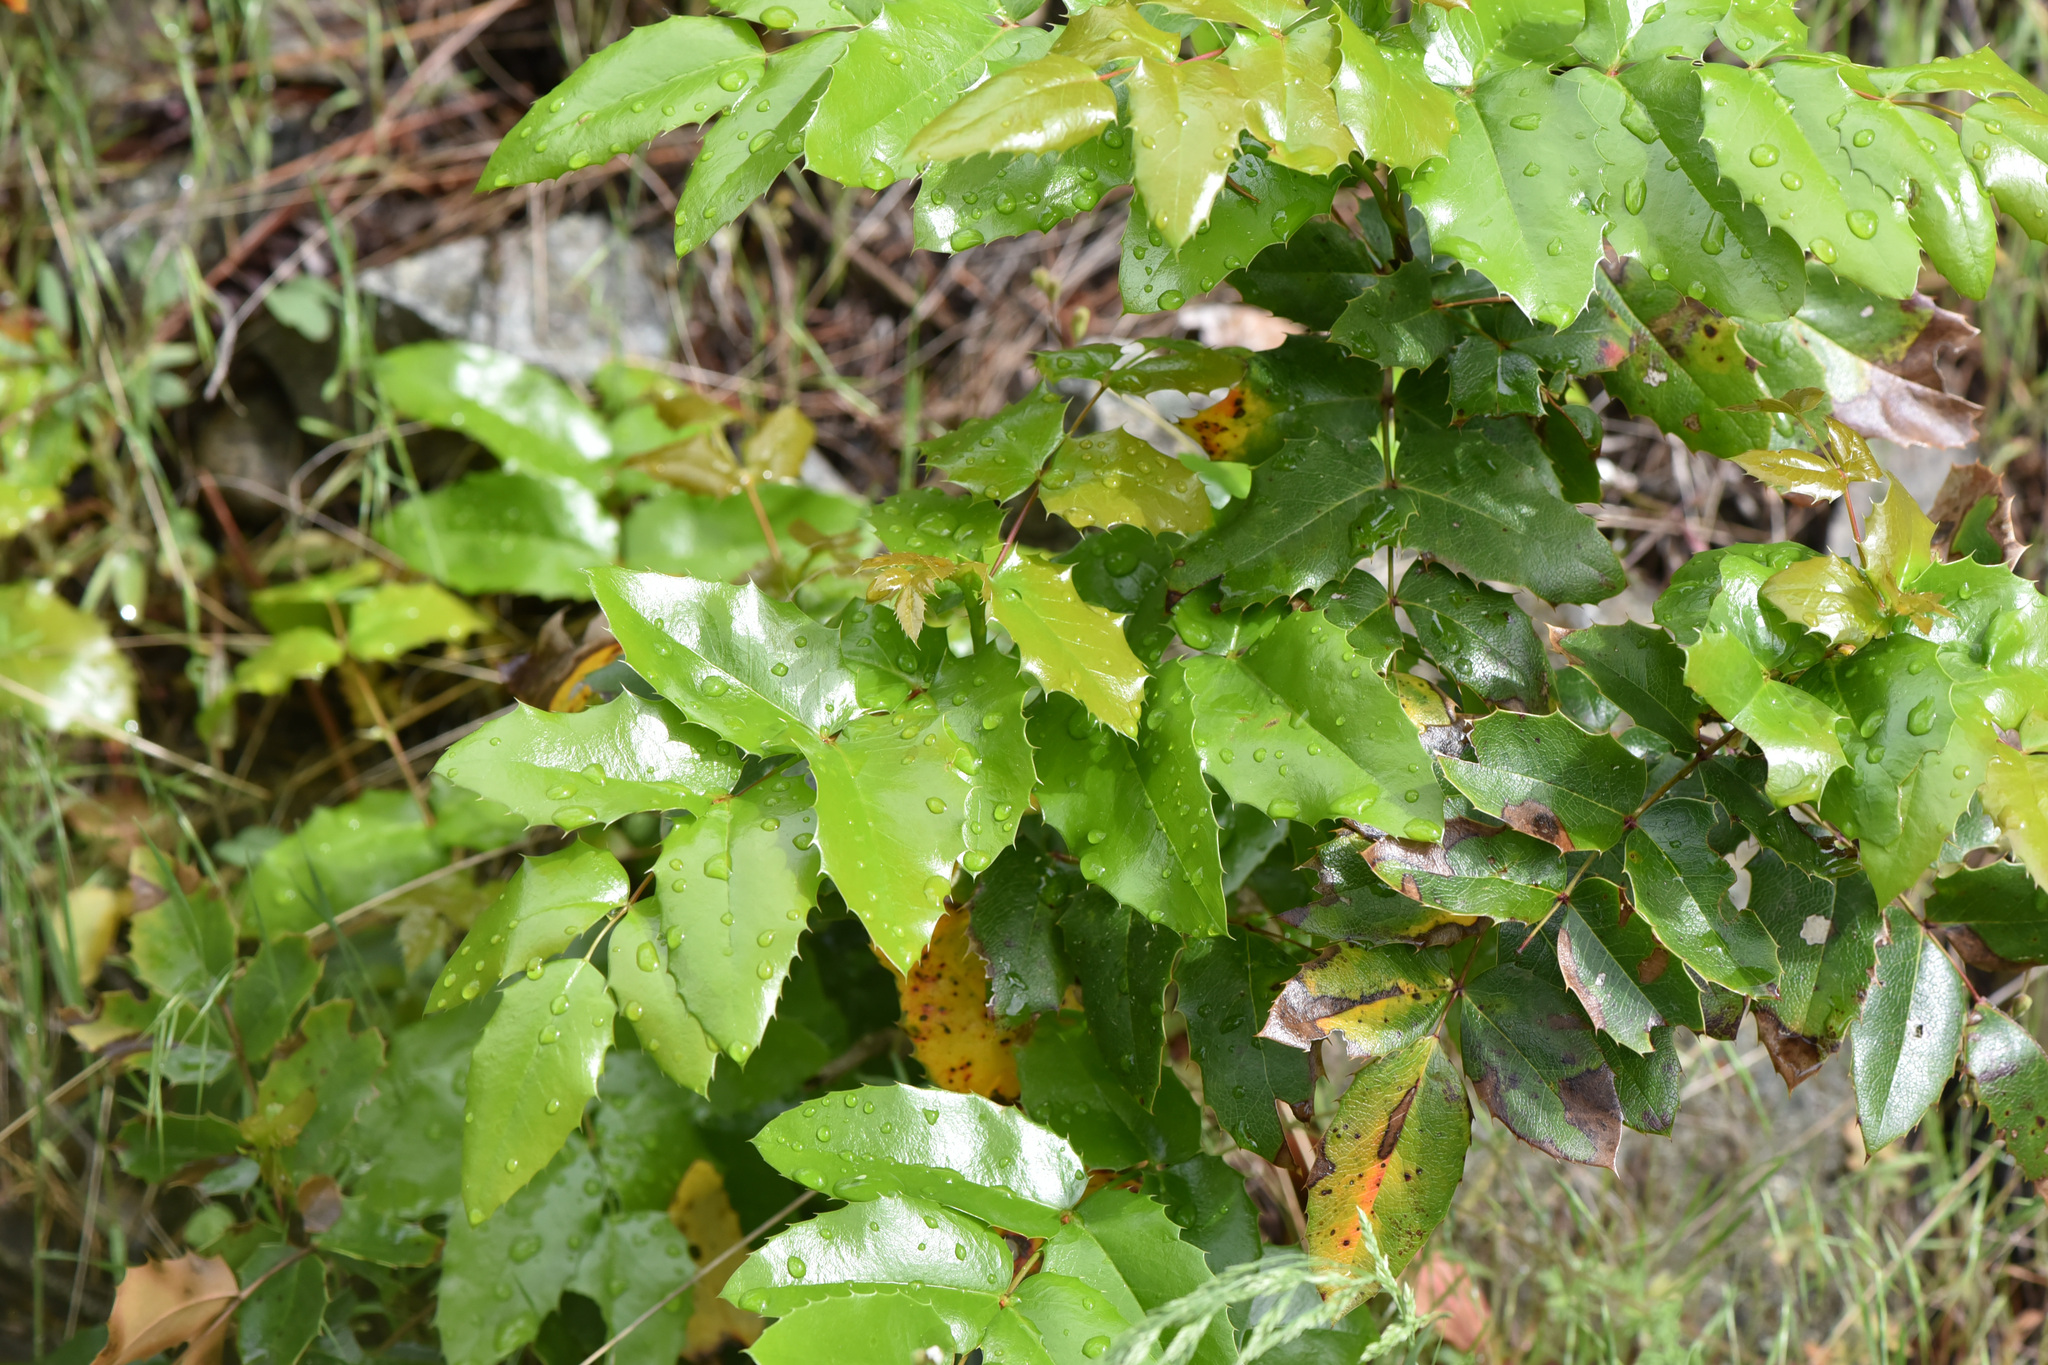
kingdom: Plantae
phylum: Tracheophyta
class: Magnoliopsida
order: Ranunculales
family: Berberidaceae
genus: Mahonia
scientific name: Mahonia aquifolium
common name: Oregon-grape
